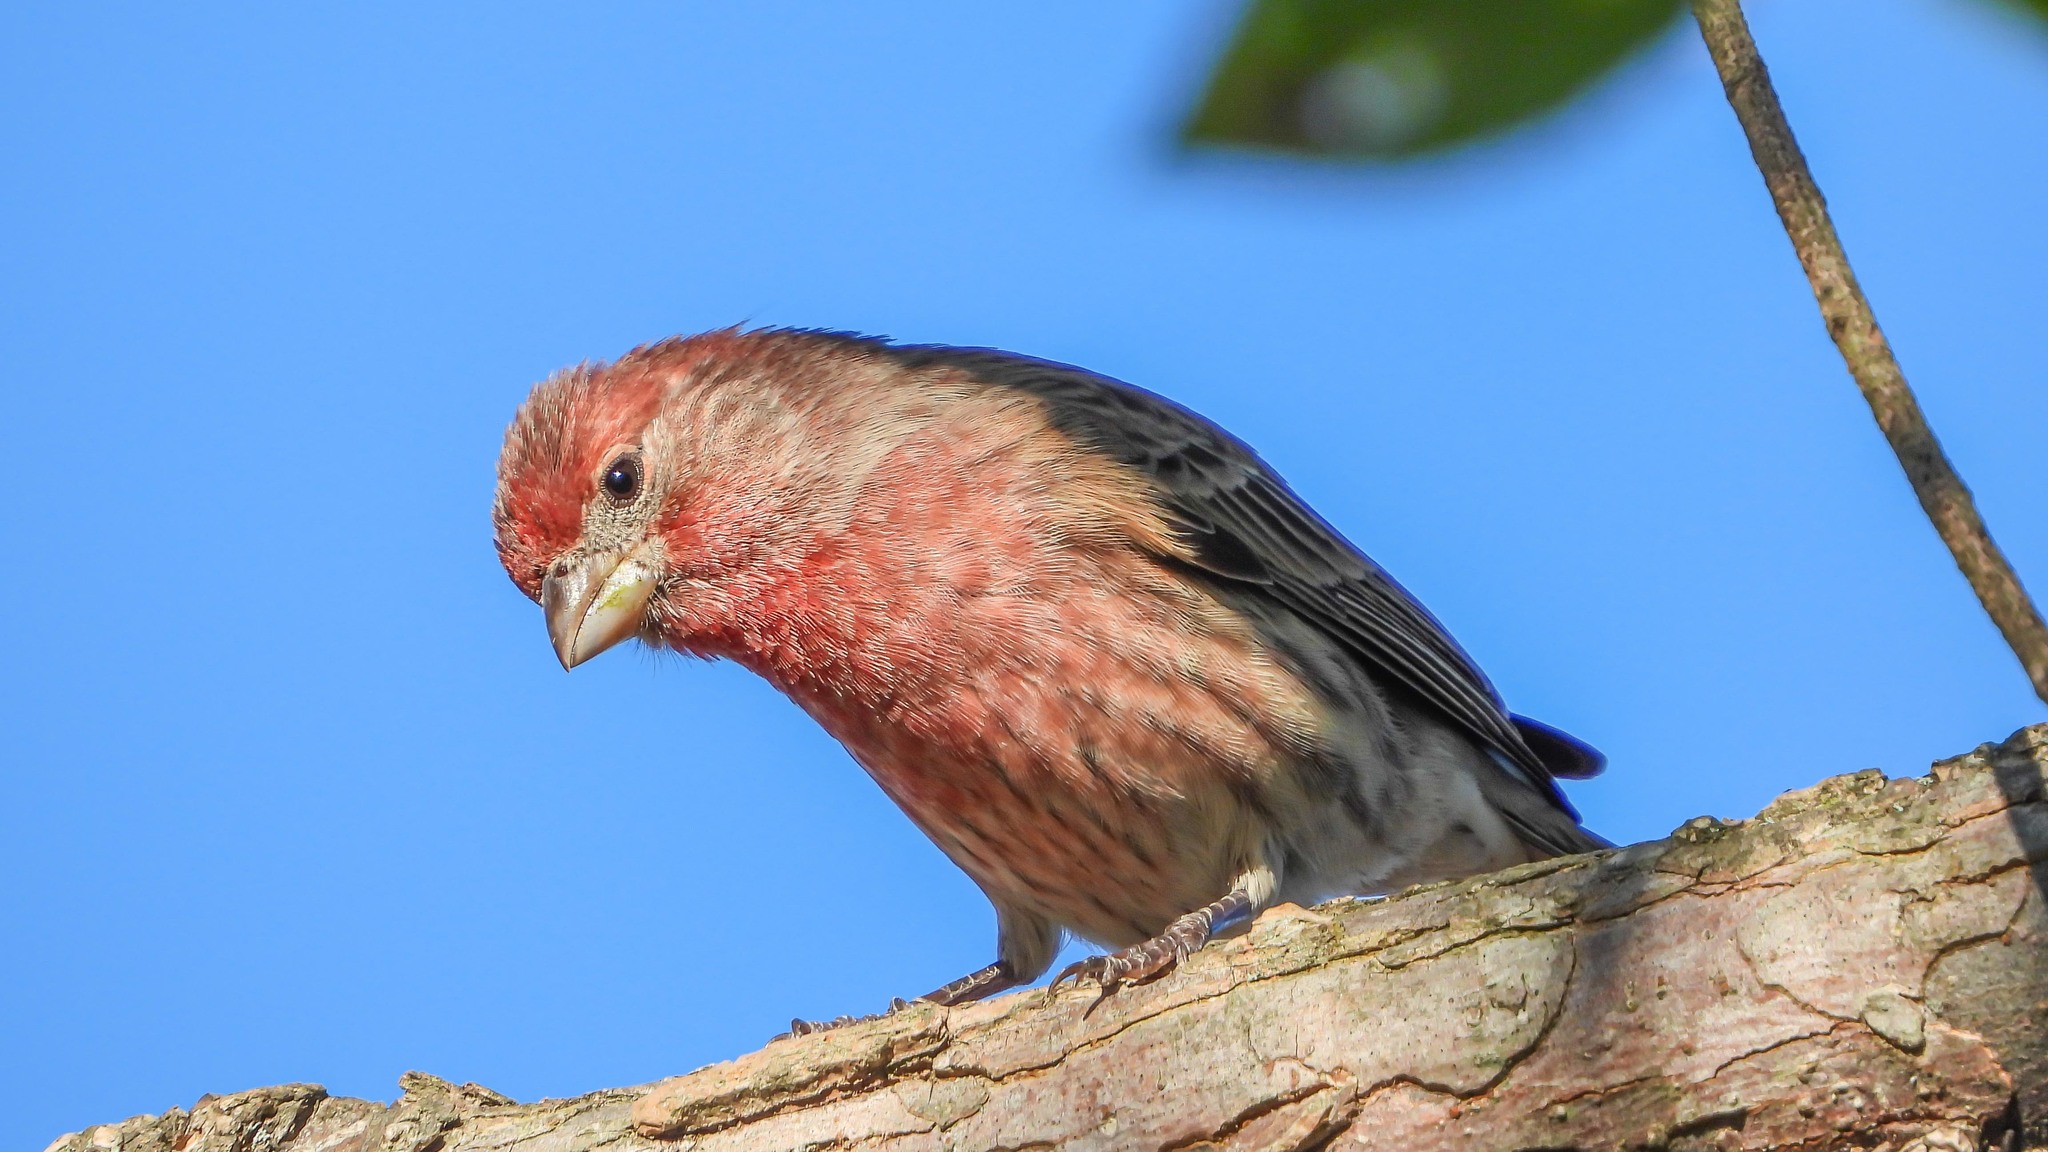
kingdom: Animalia
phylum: Chordata
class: Aves
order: Passeriformes
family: Fringillidae
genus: Haemorhous
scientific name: Haemorhous mexicanus
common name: House finch
